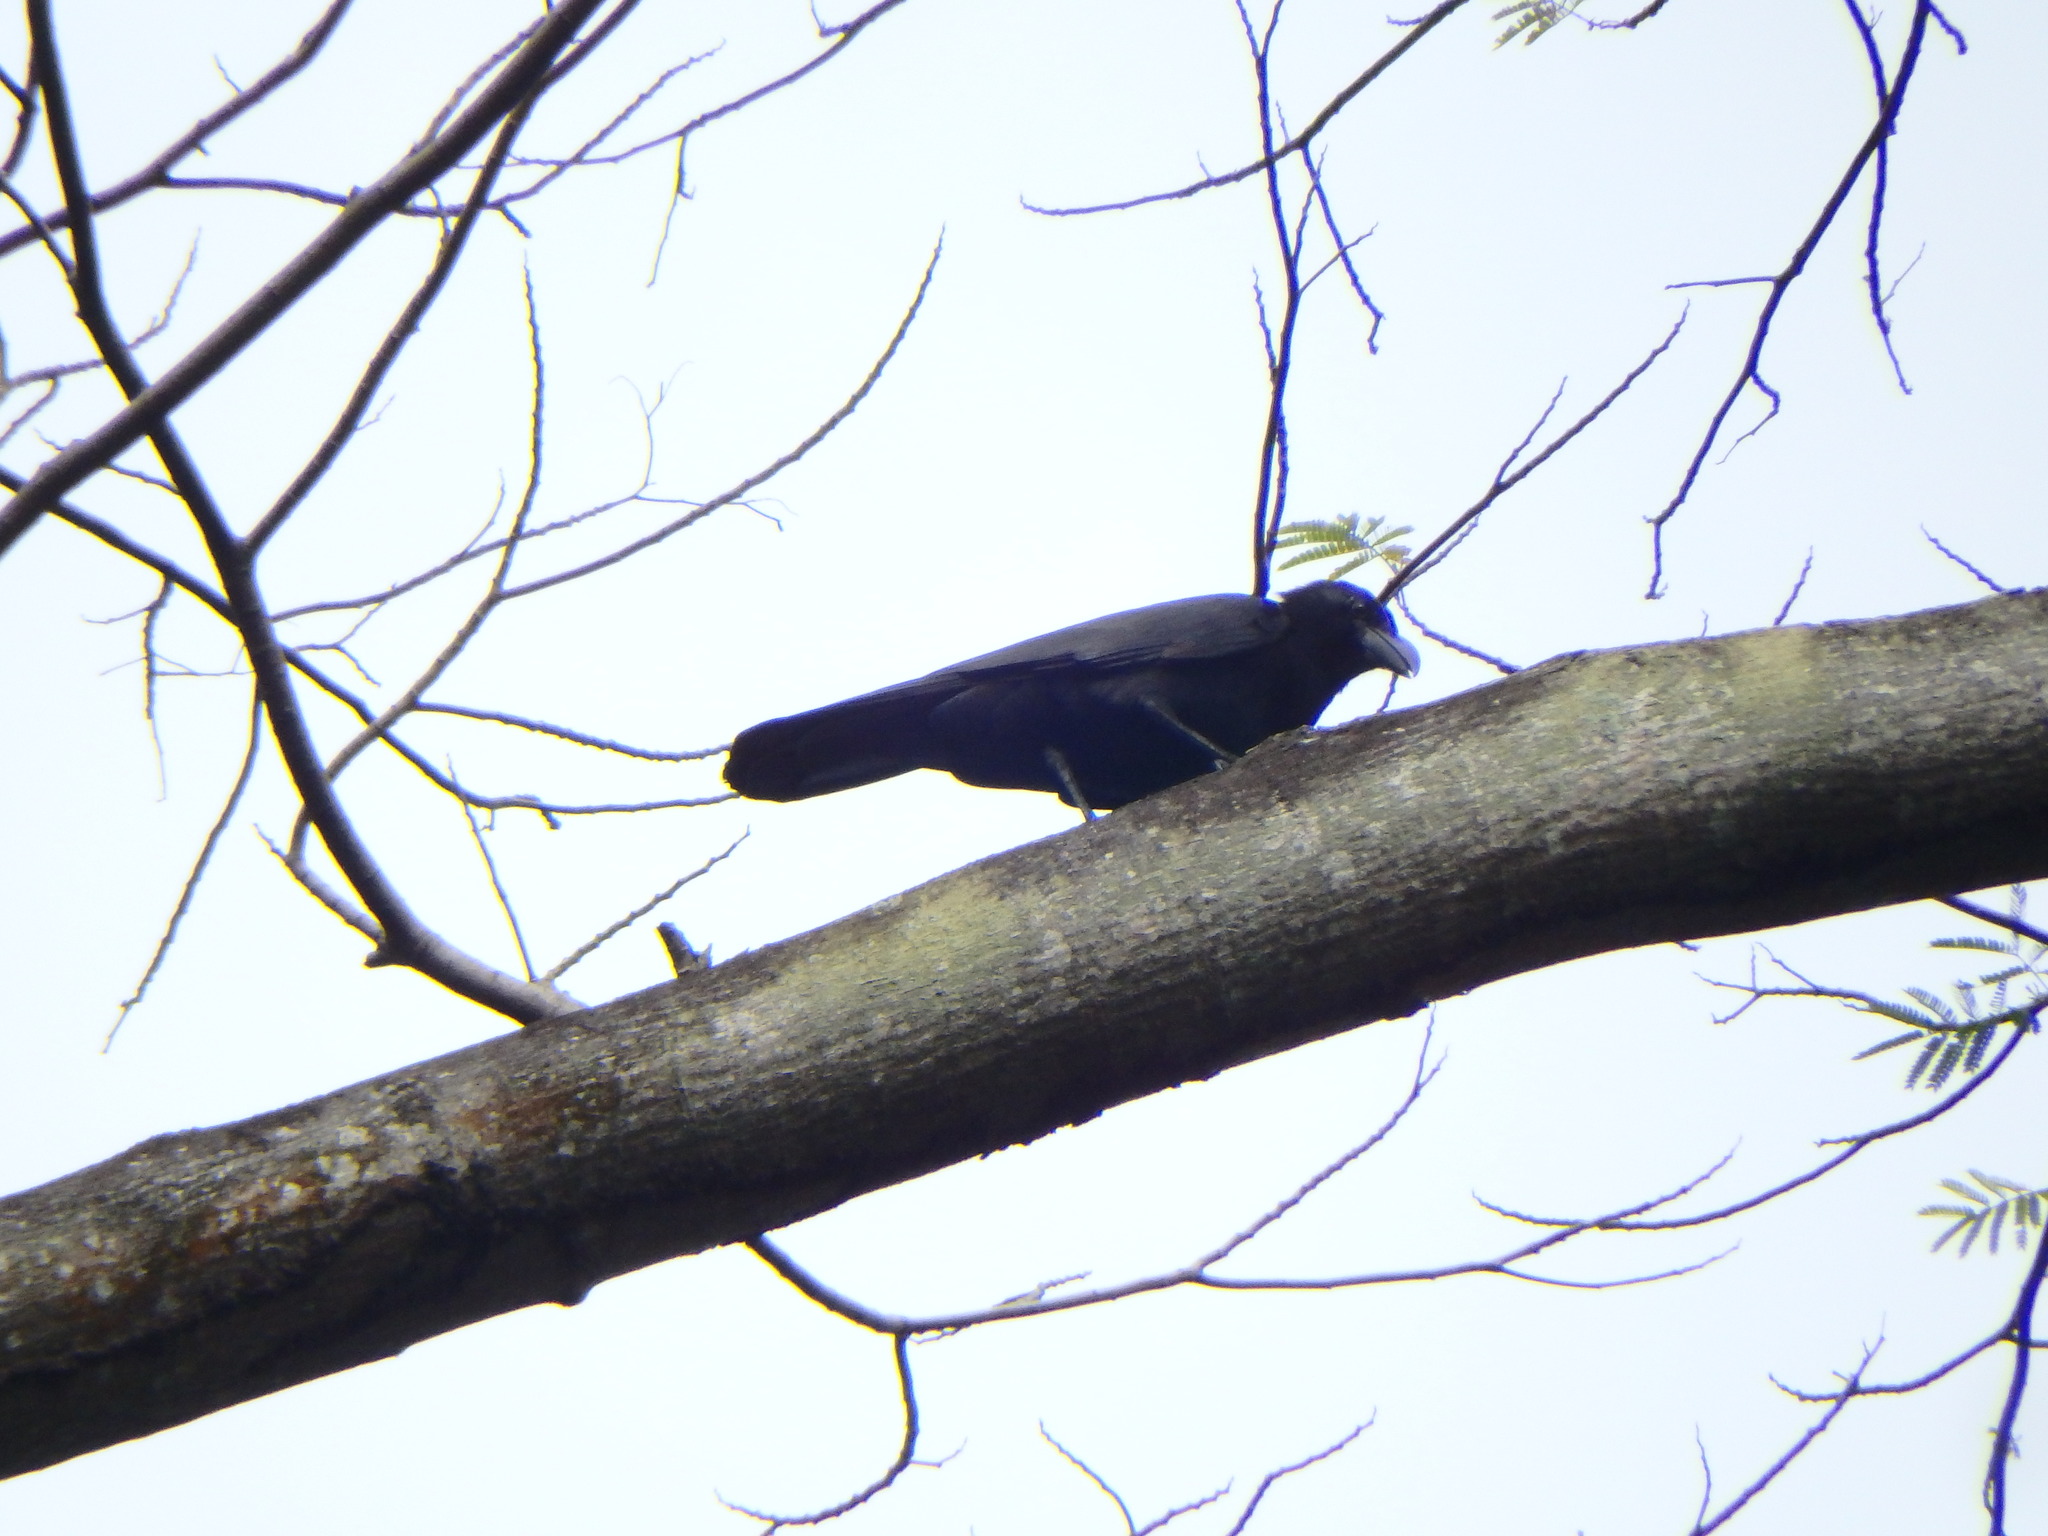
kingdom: Animalia
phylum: Chordata
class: Aves
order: Passeriformes
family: Corvidae
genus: Corvus
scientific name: Corvus macrorhynchos
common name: Large-billed crow
